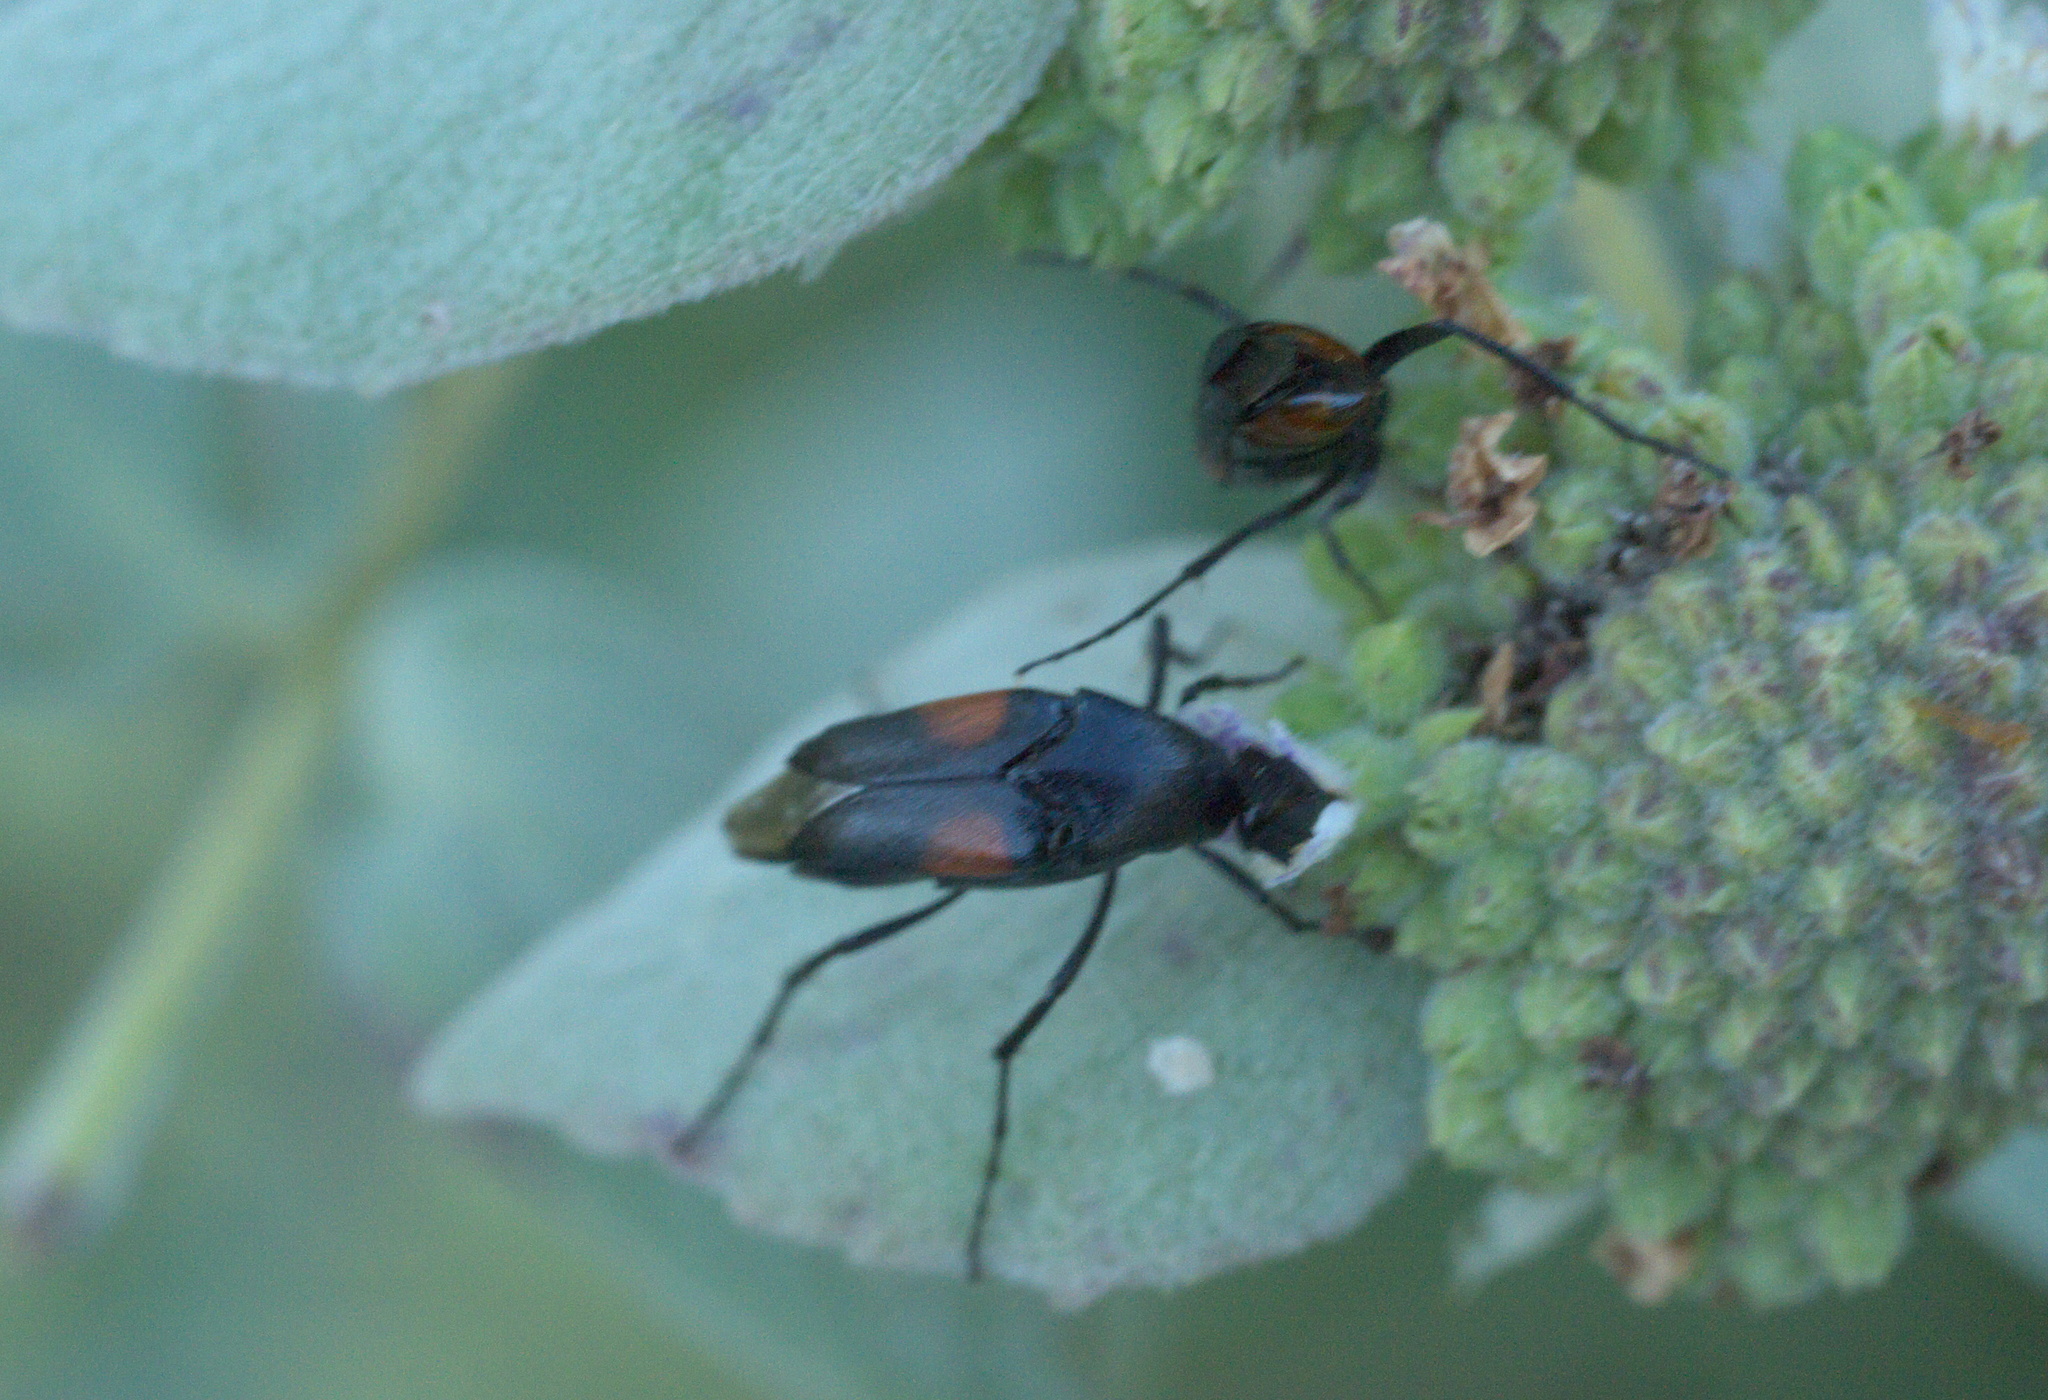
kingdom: Animalia
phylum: Arthropoda
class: Insecta
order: Coleoptera
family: Ripiphoridae
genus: Macrosiagon
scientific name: Macrosiagon cruentum
